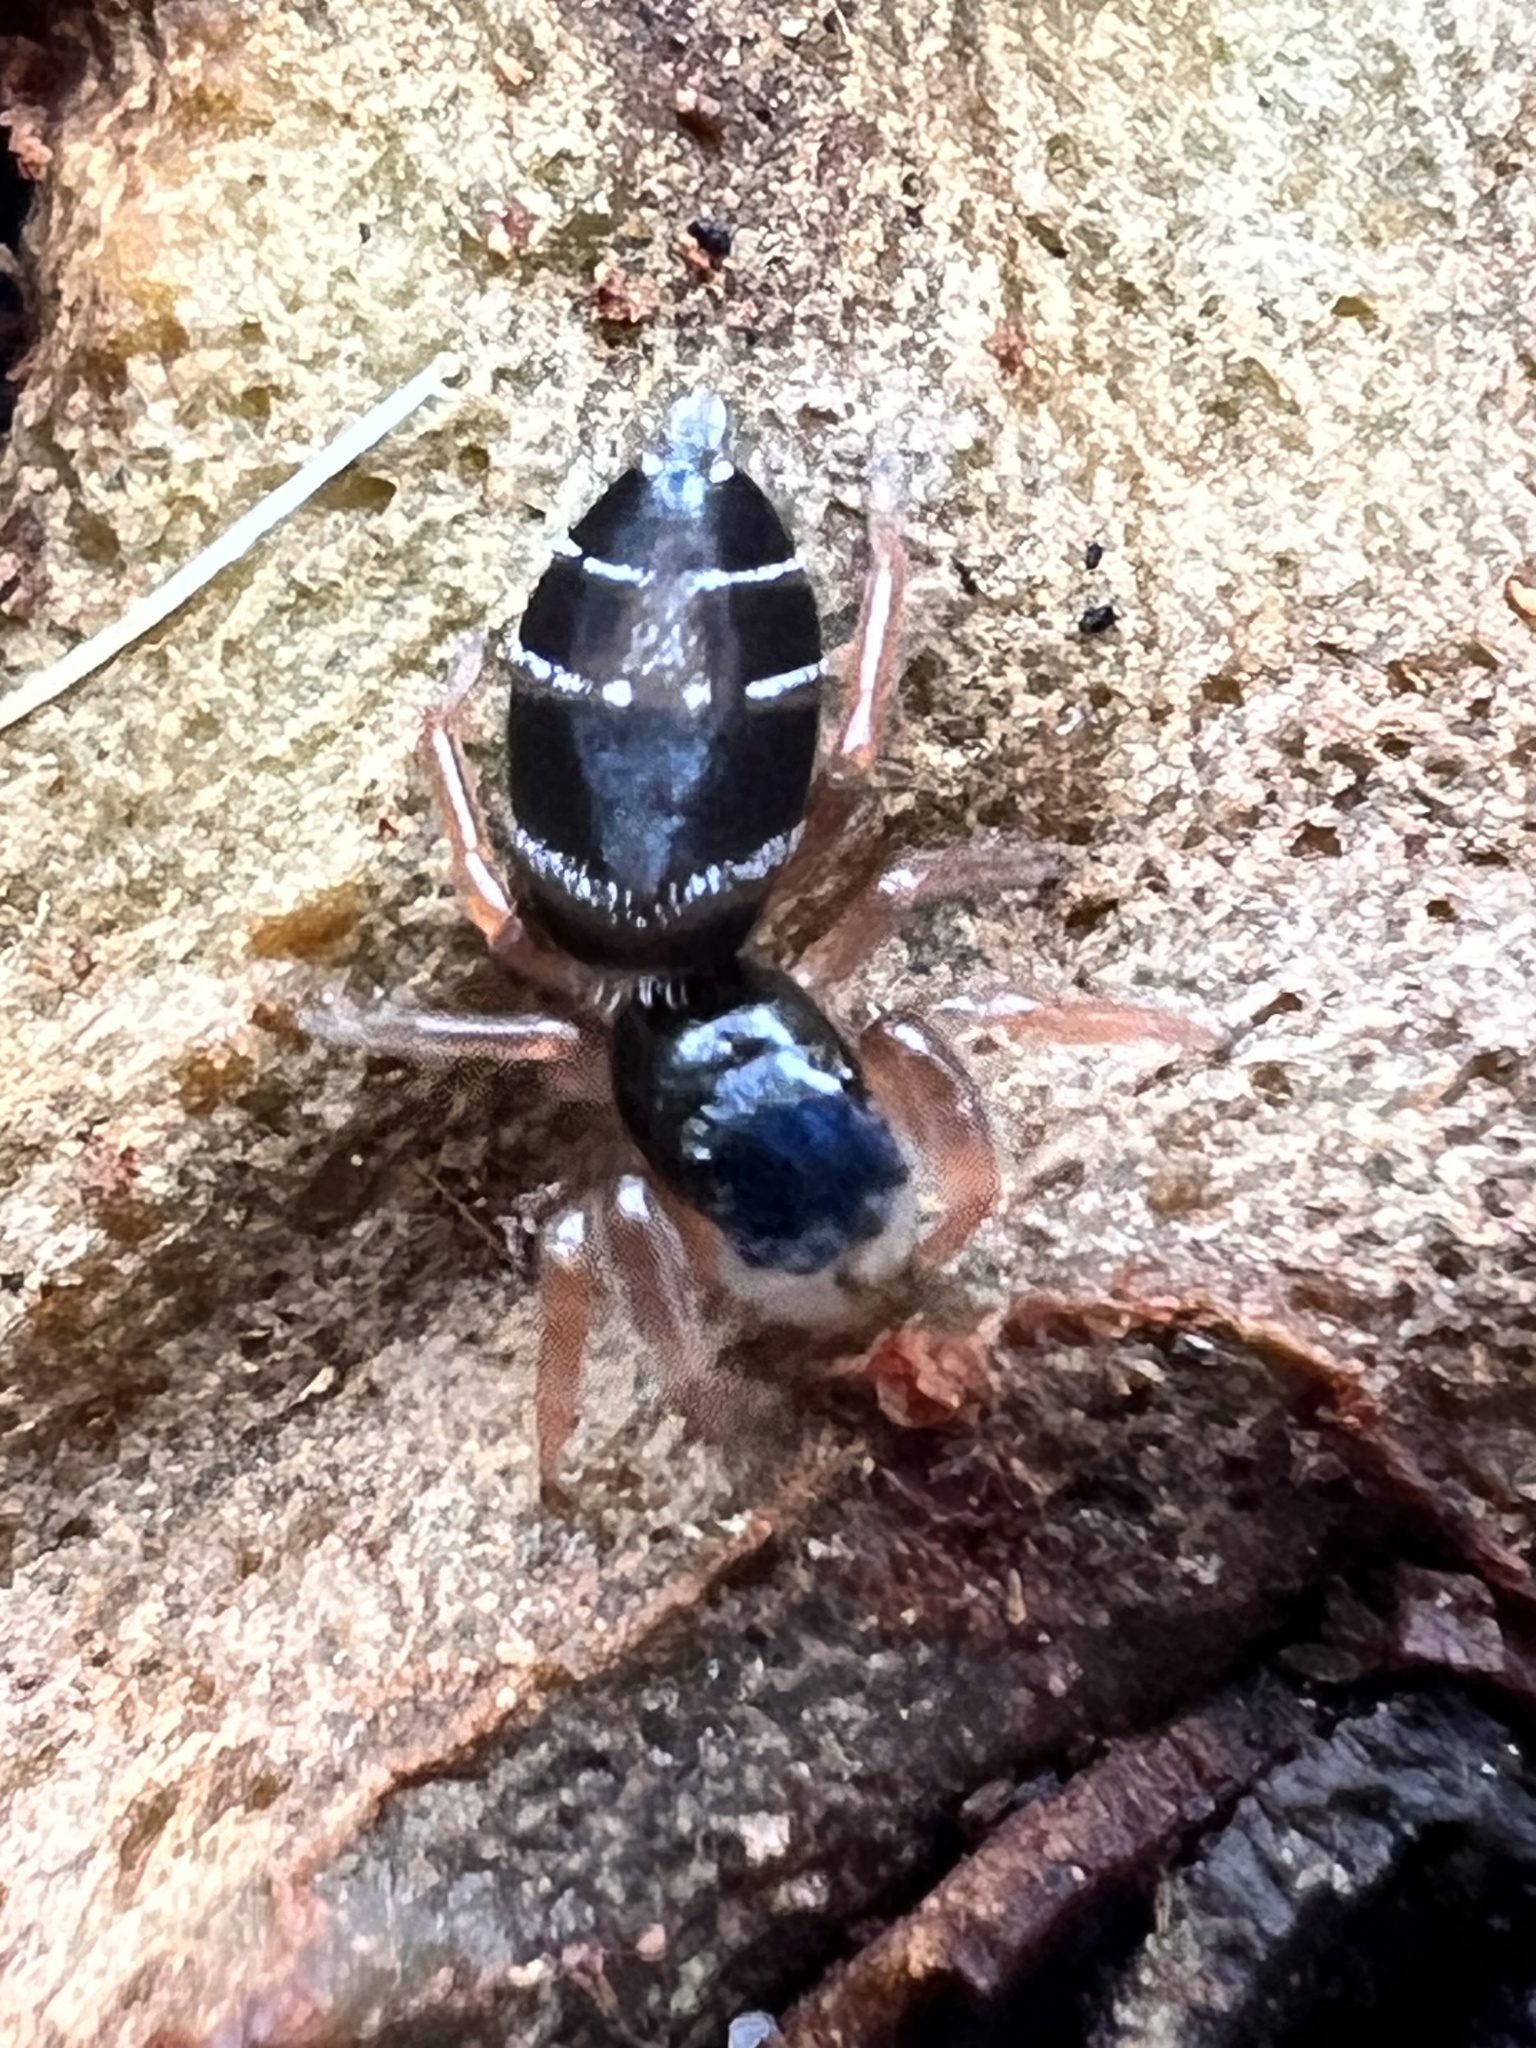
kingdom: Animalia
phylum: Arthropoda
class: Arachnida
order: Araneae
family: Salticidae
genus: Apricia
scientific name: Apricia jovialis
